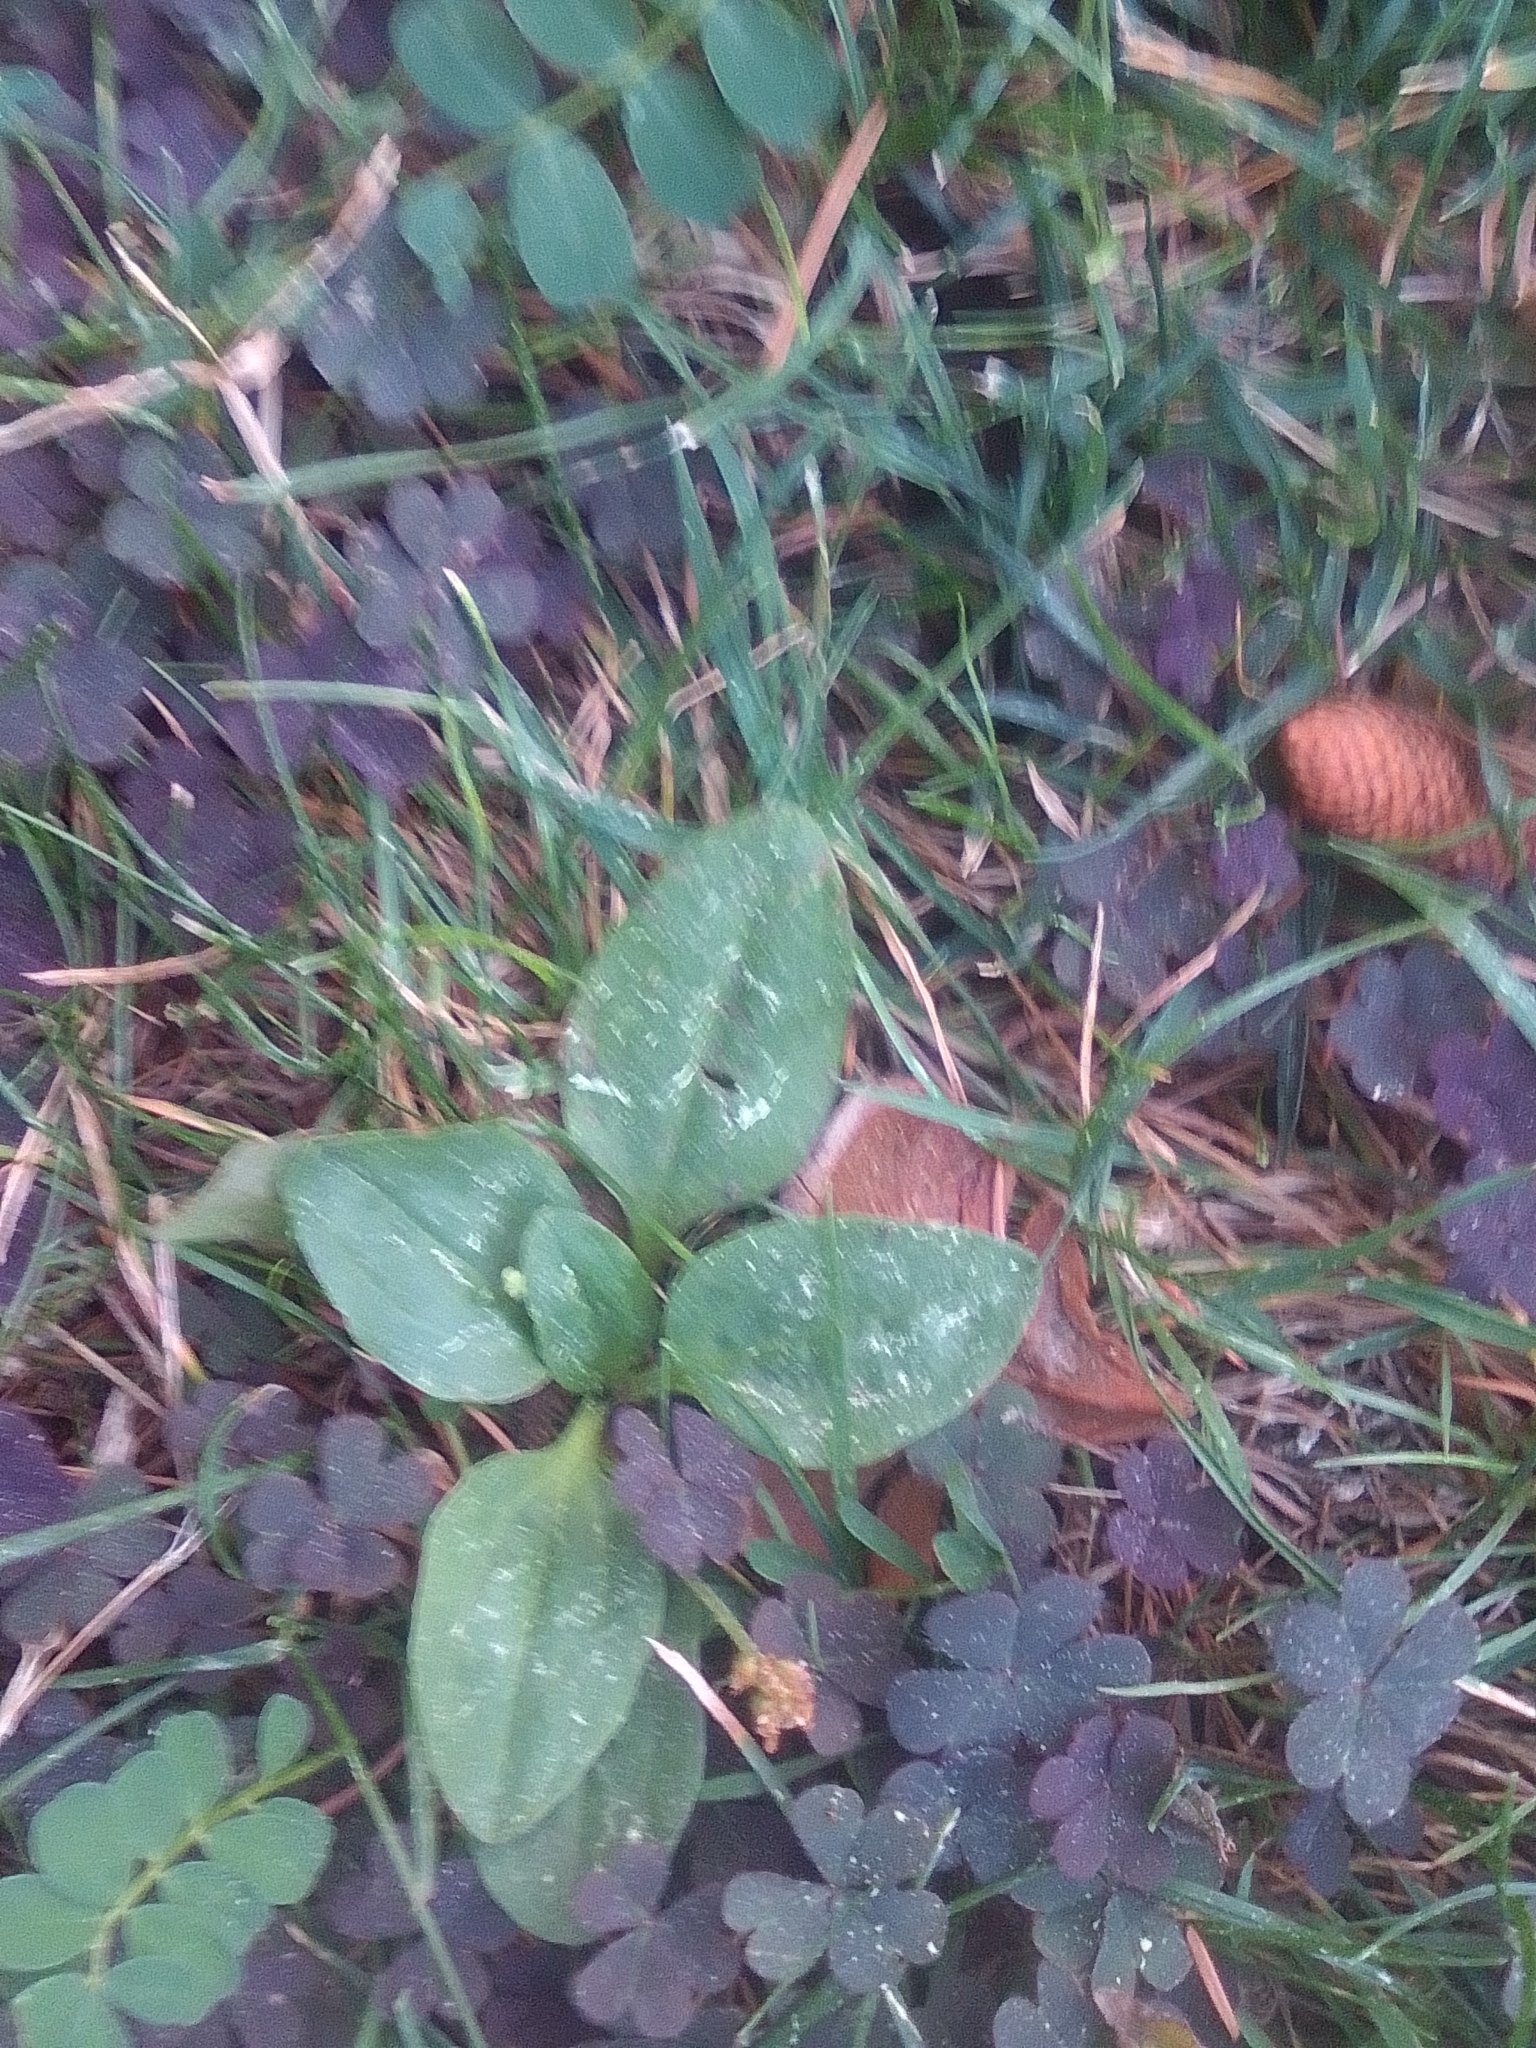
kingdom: Plantae
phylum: Tracheophyta
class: Magnoliopsida
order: Lamiales
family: Plantaginaceae
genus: Plantago
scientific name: Plantago major
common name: Common plantain
